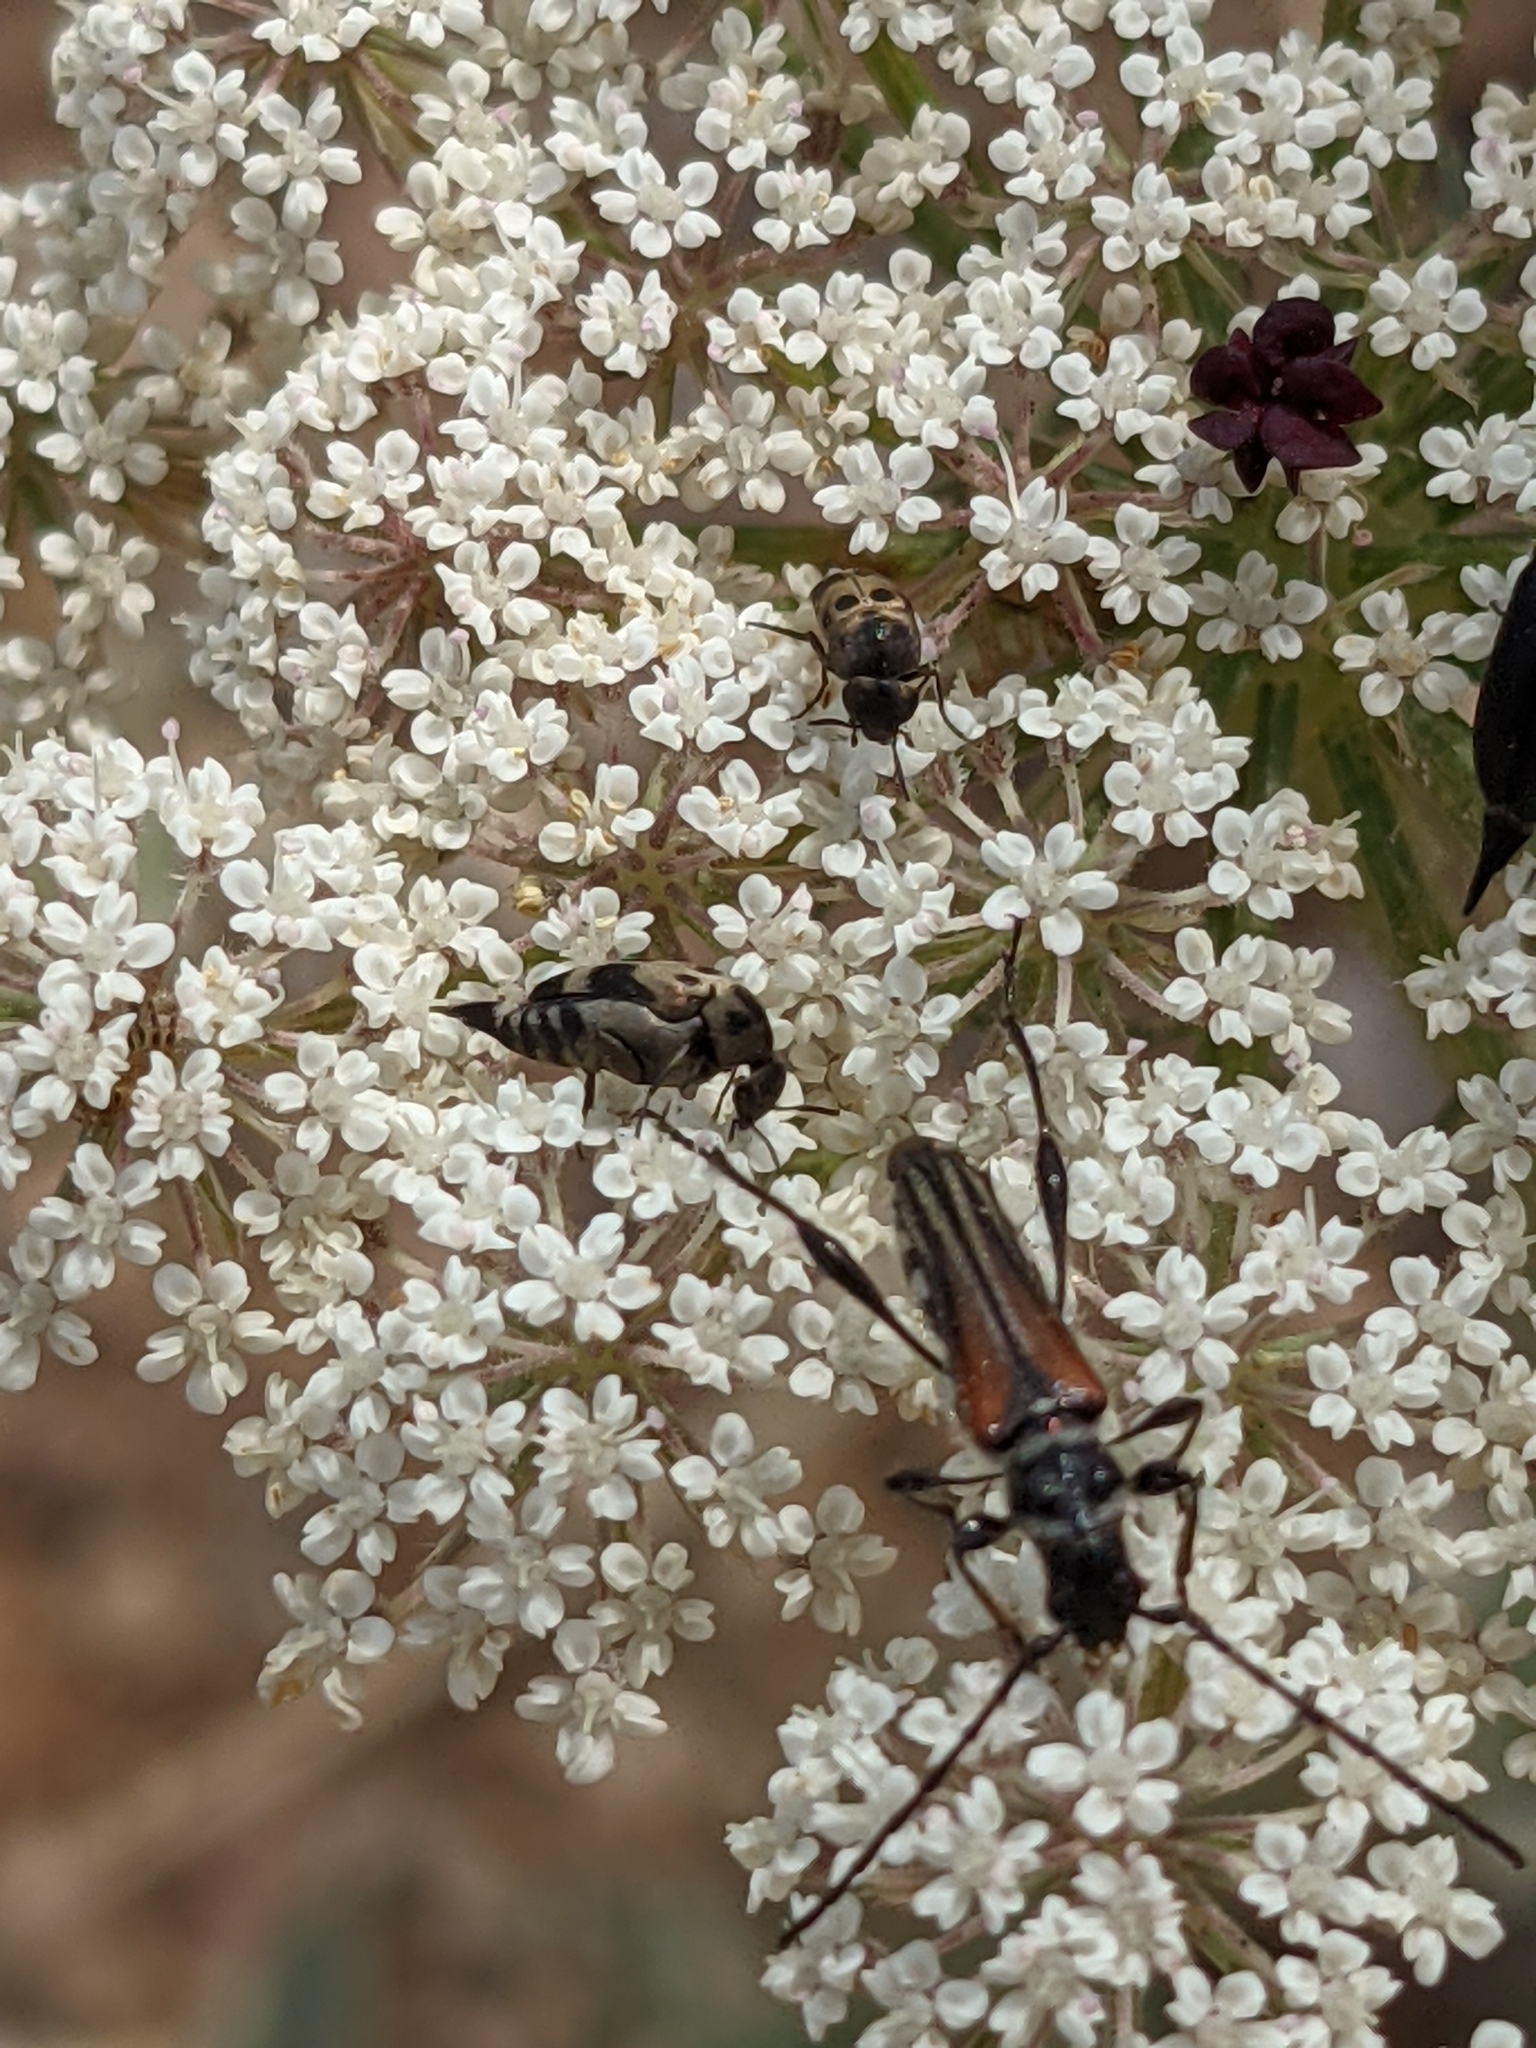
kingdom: Animalia
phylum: Arthropoda
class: Insecta
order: Coleoptera
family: Cerambycidae
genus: Stenopterus
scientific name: Stenopterus ater
